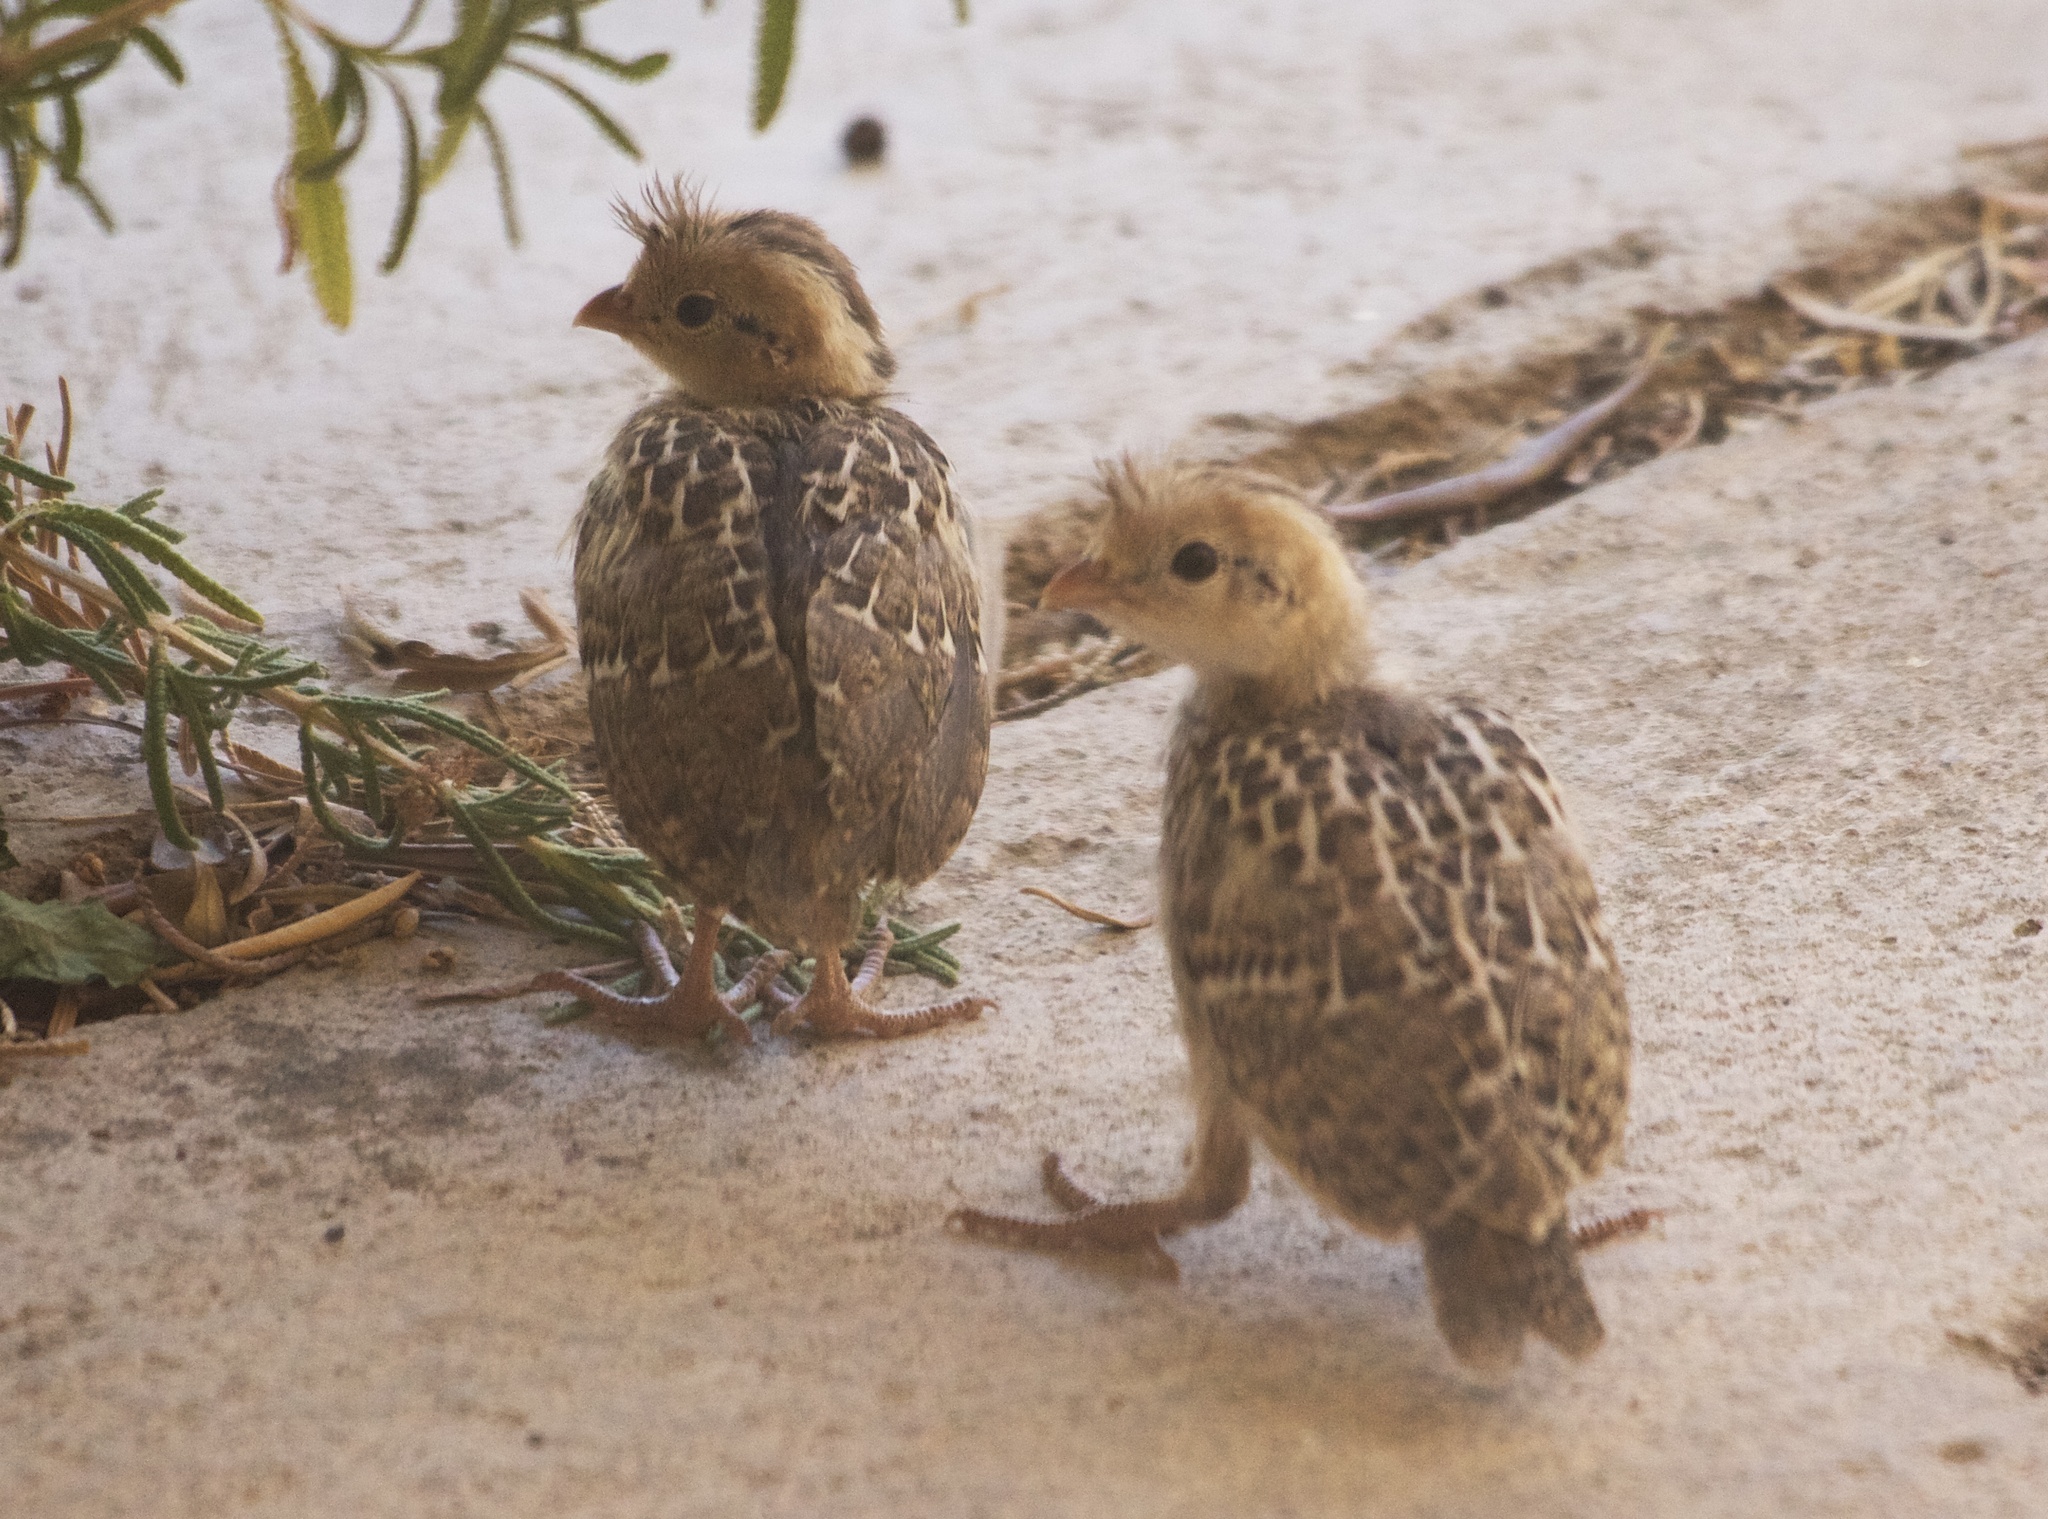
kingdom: Animalia
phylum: Chordata
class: Aves
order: Galliformes
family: Odontophoridae
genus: Callipepla
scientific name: Callipepla gambelii
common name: Gambel's quail
